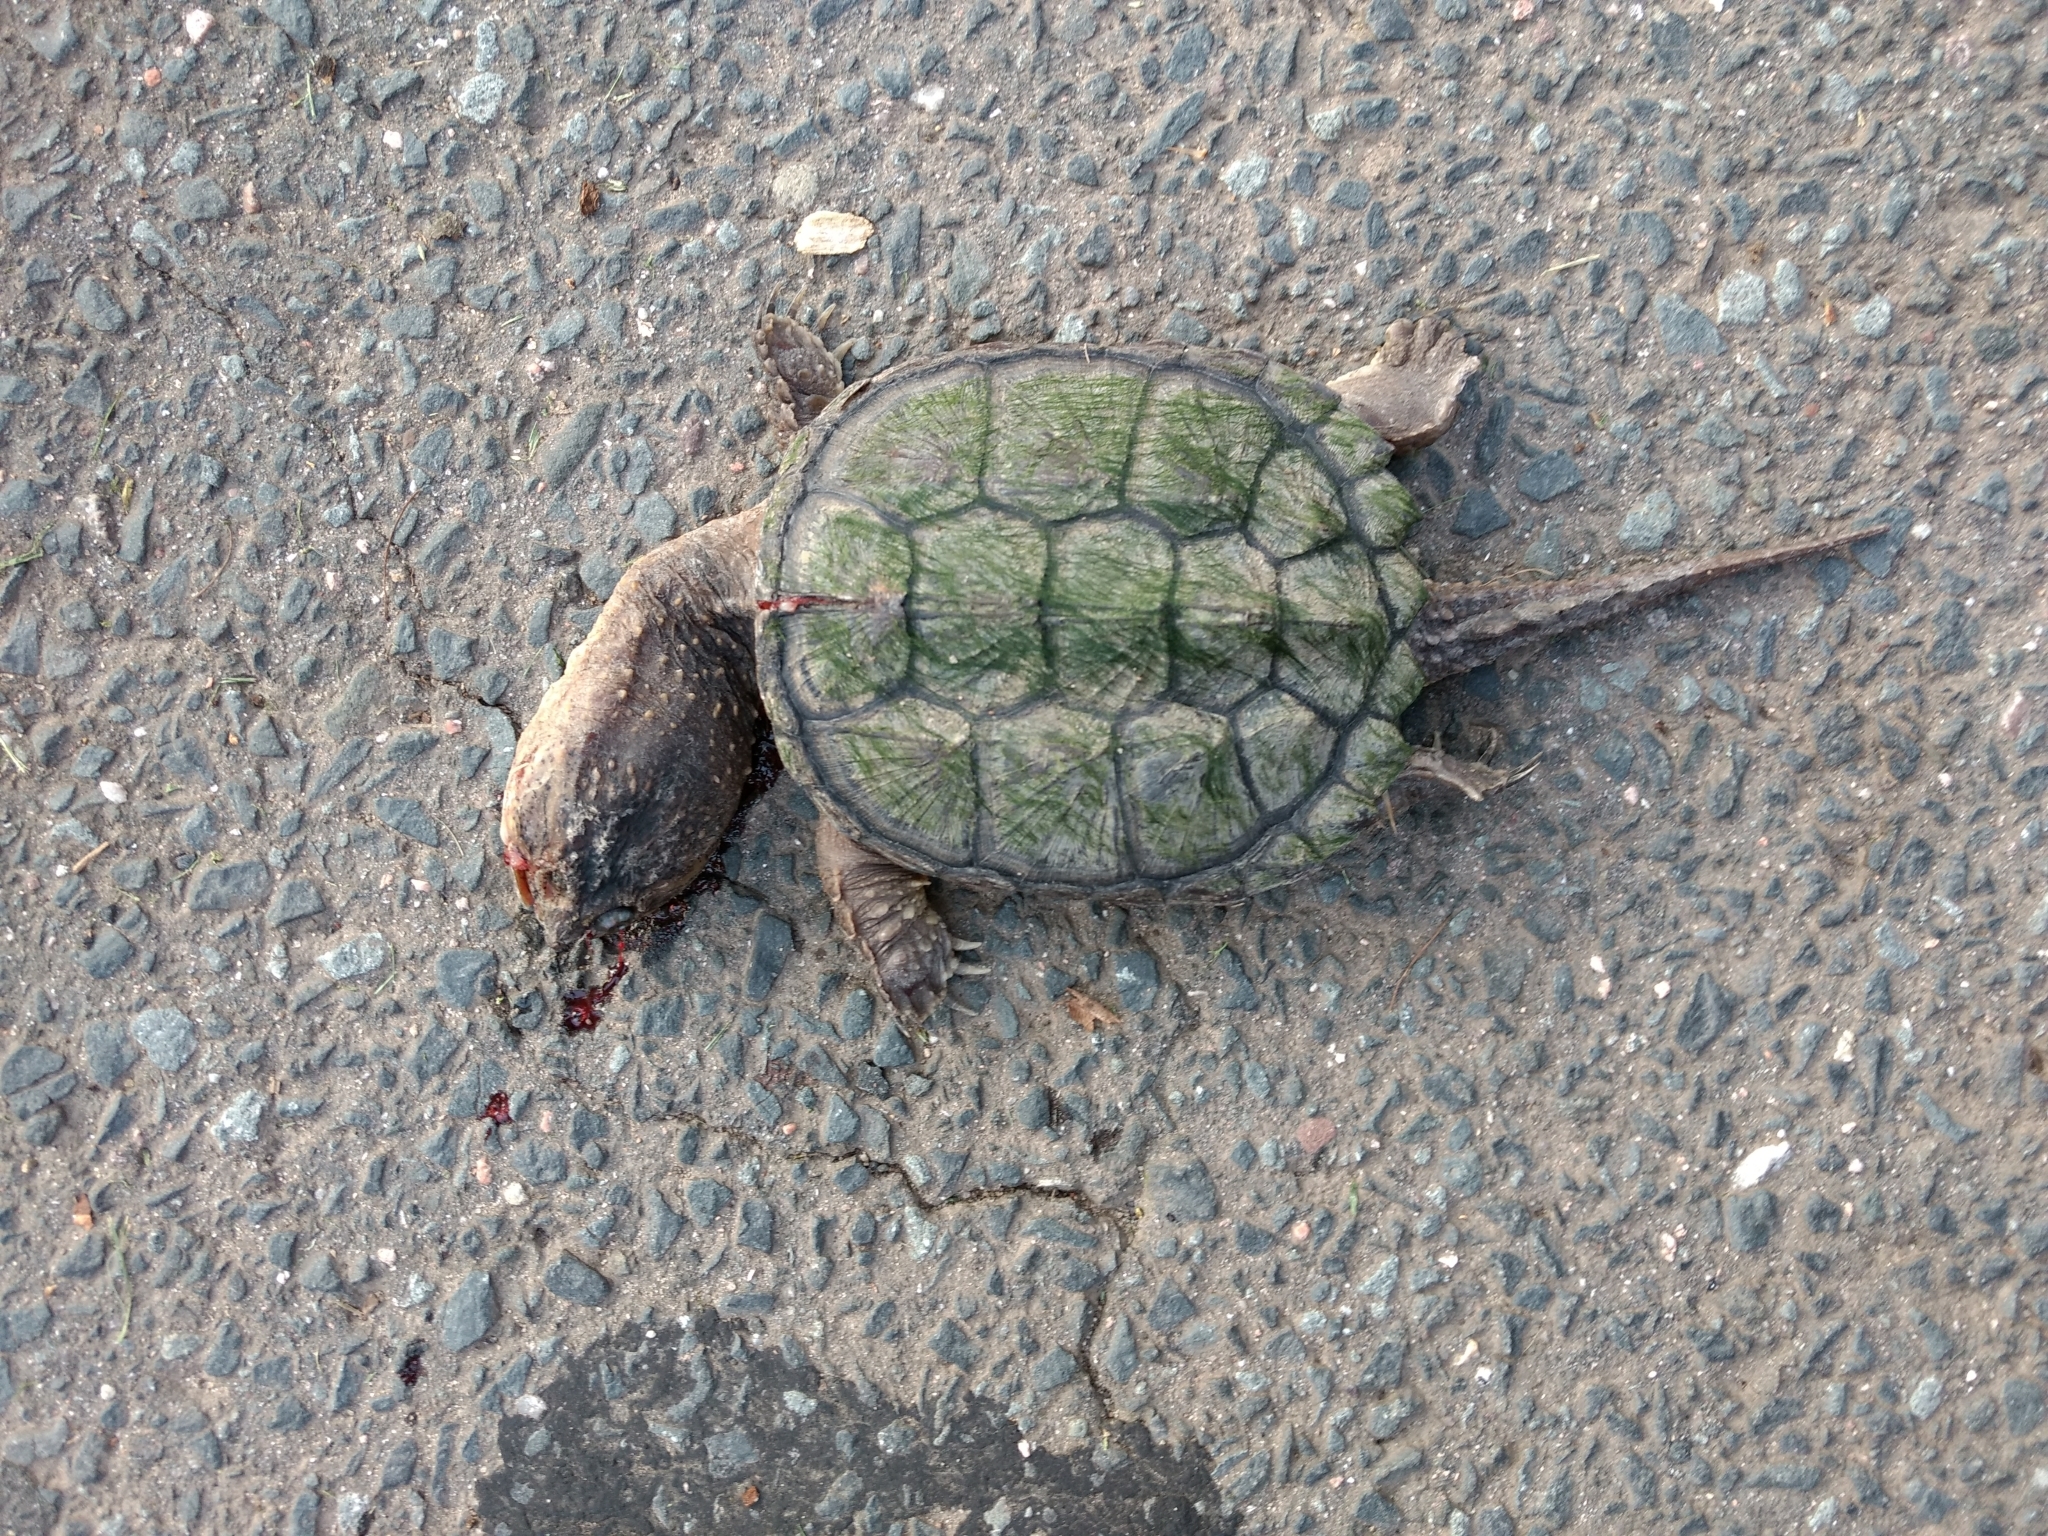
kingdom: Animalia
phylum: Chordata
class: Testudines
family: Chelydridae
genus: Chelydra
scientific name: Chelydra serpentina
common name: Common snapping turtle
